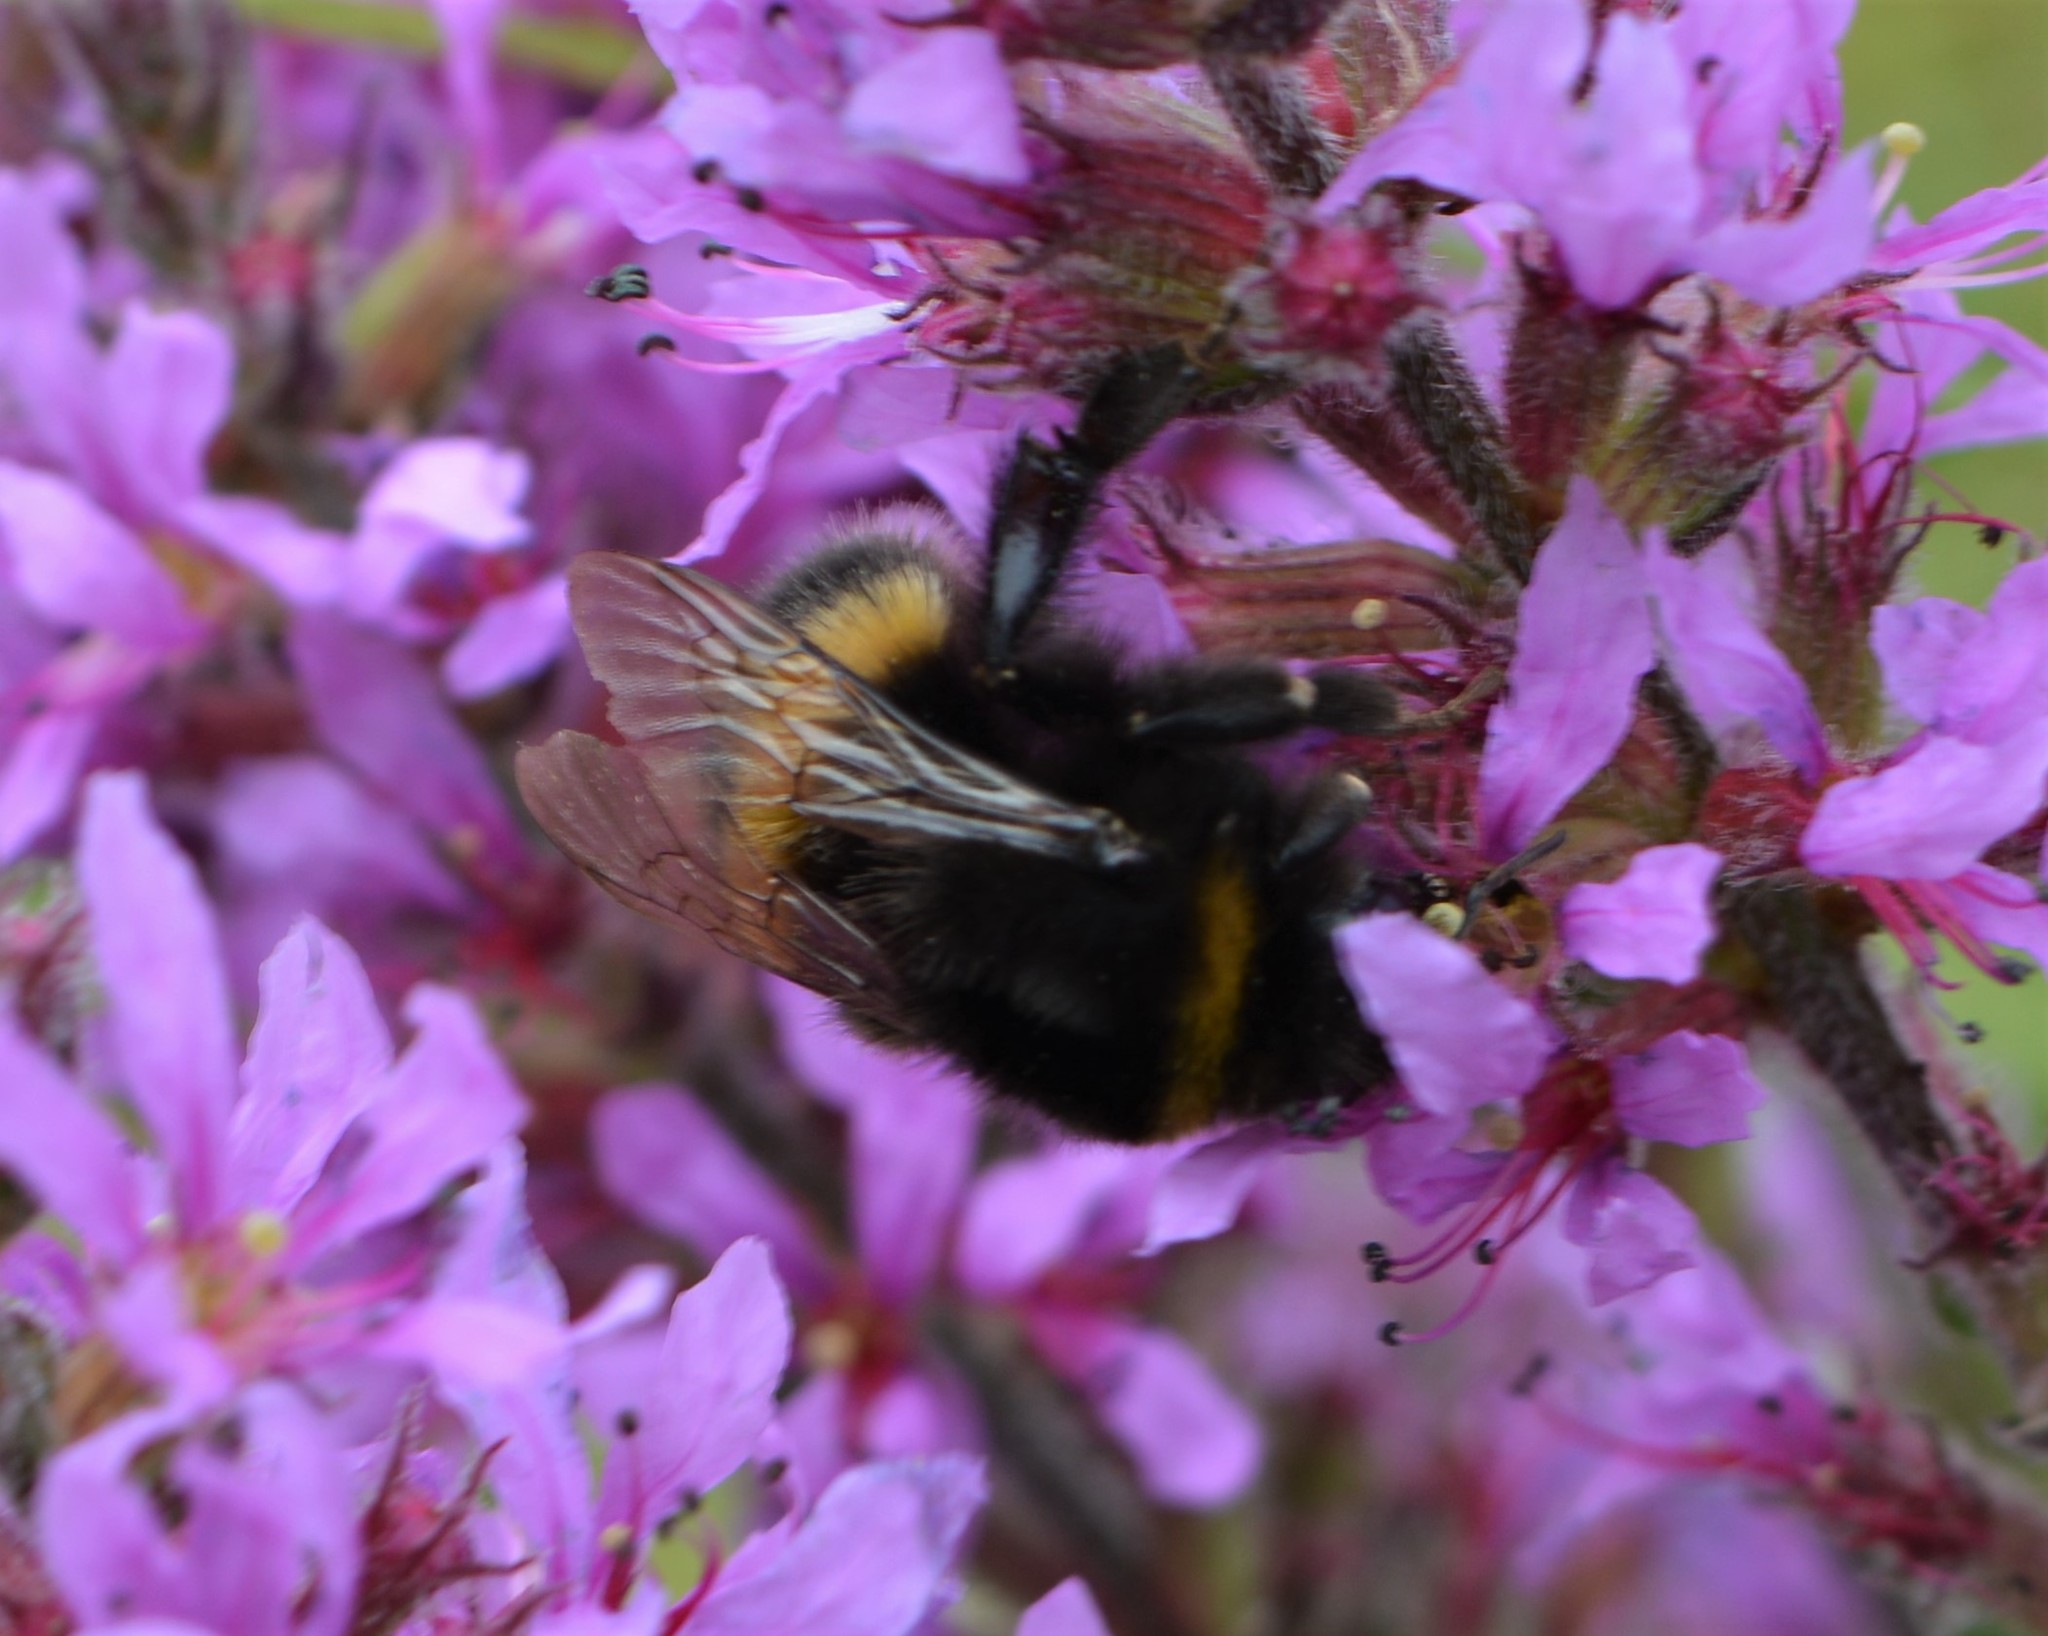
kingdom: Animalia
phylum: Arthropoda
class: Insecta
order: Hymenoptera
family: Apidae
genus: Bombus
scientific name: Bombus terrestris
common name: Buff-tailed bumblebee
